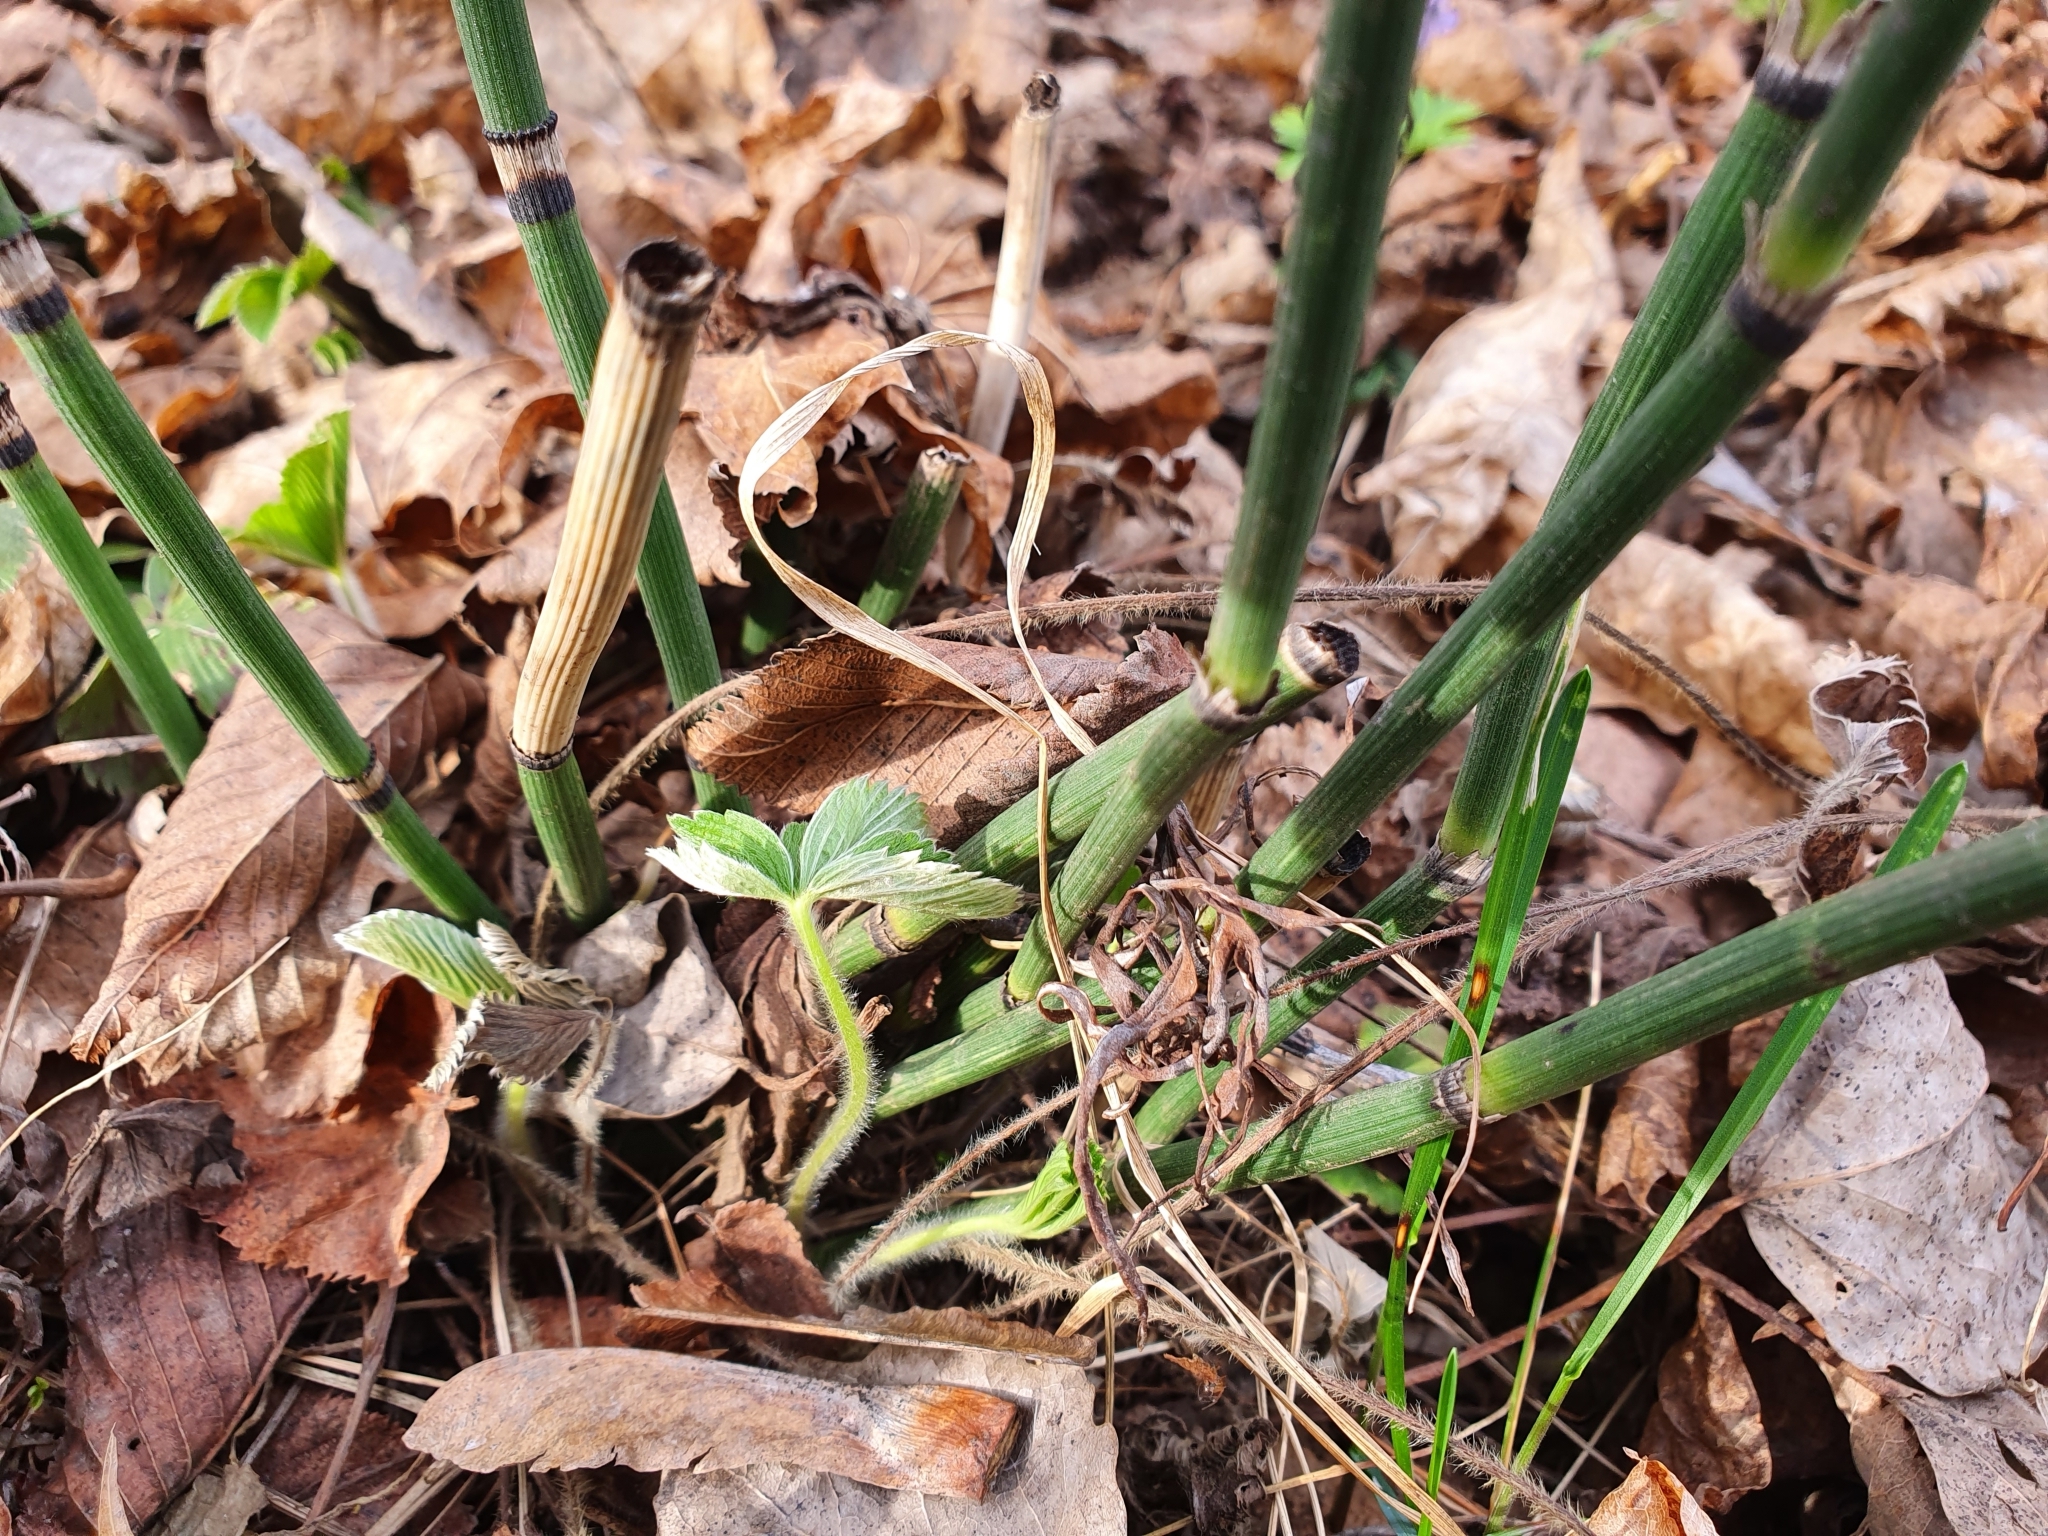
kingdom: Plantae
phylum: Tracheophyta
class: Polypodiopsida
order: Equisetales
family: Equisetaceae
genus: Equisetum
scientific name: Equisetum hyemale
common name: Rough horsetail
